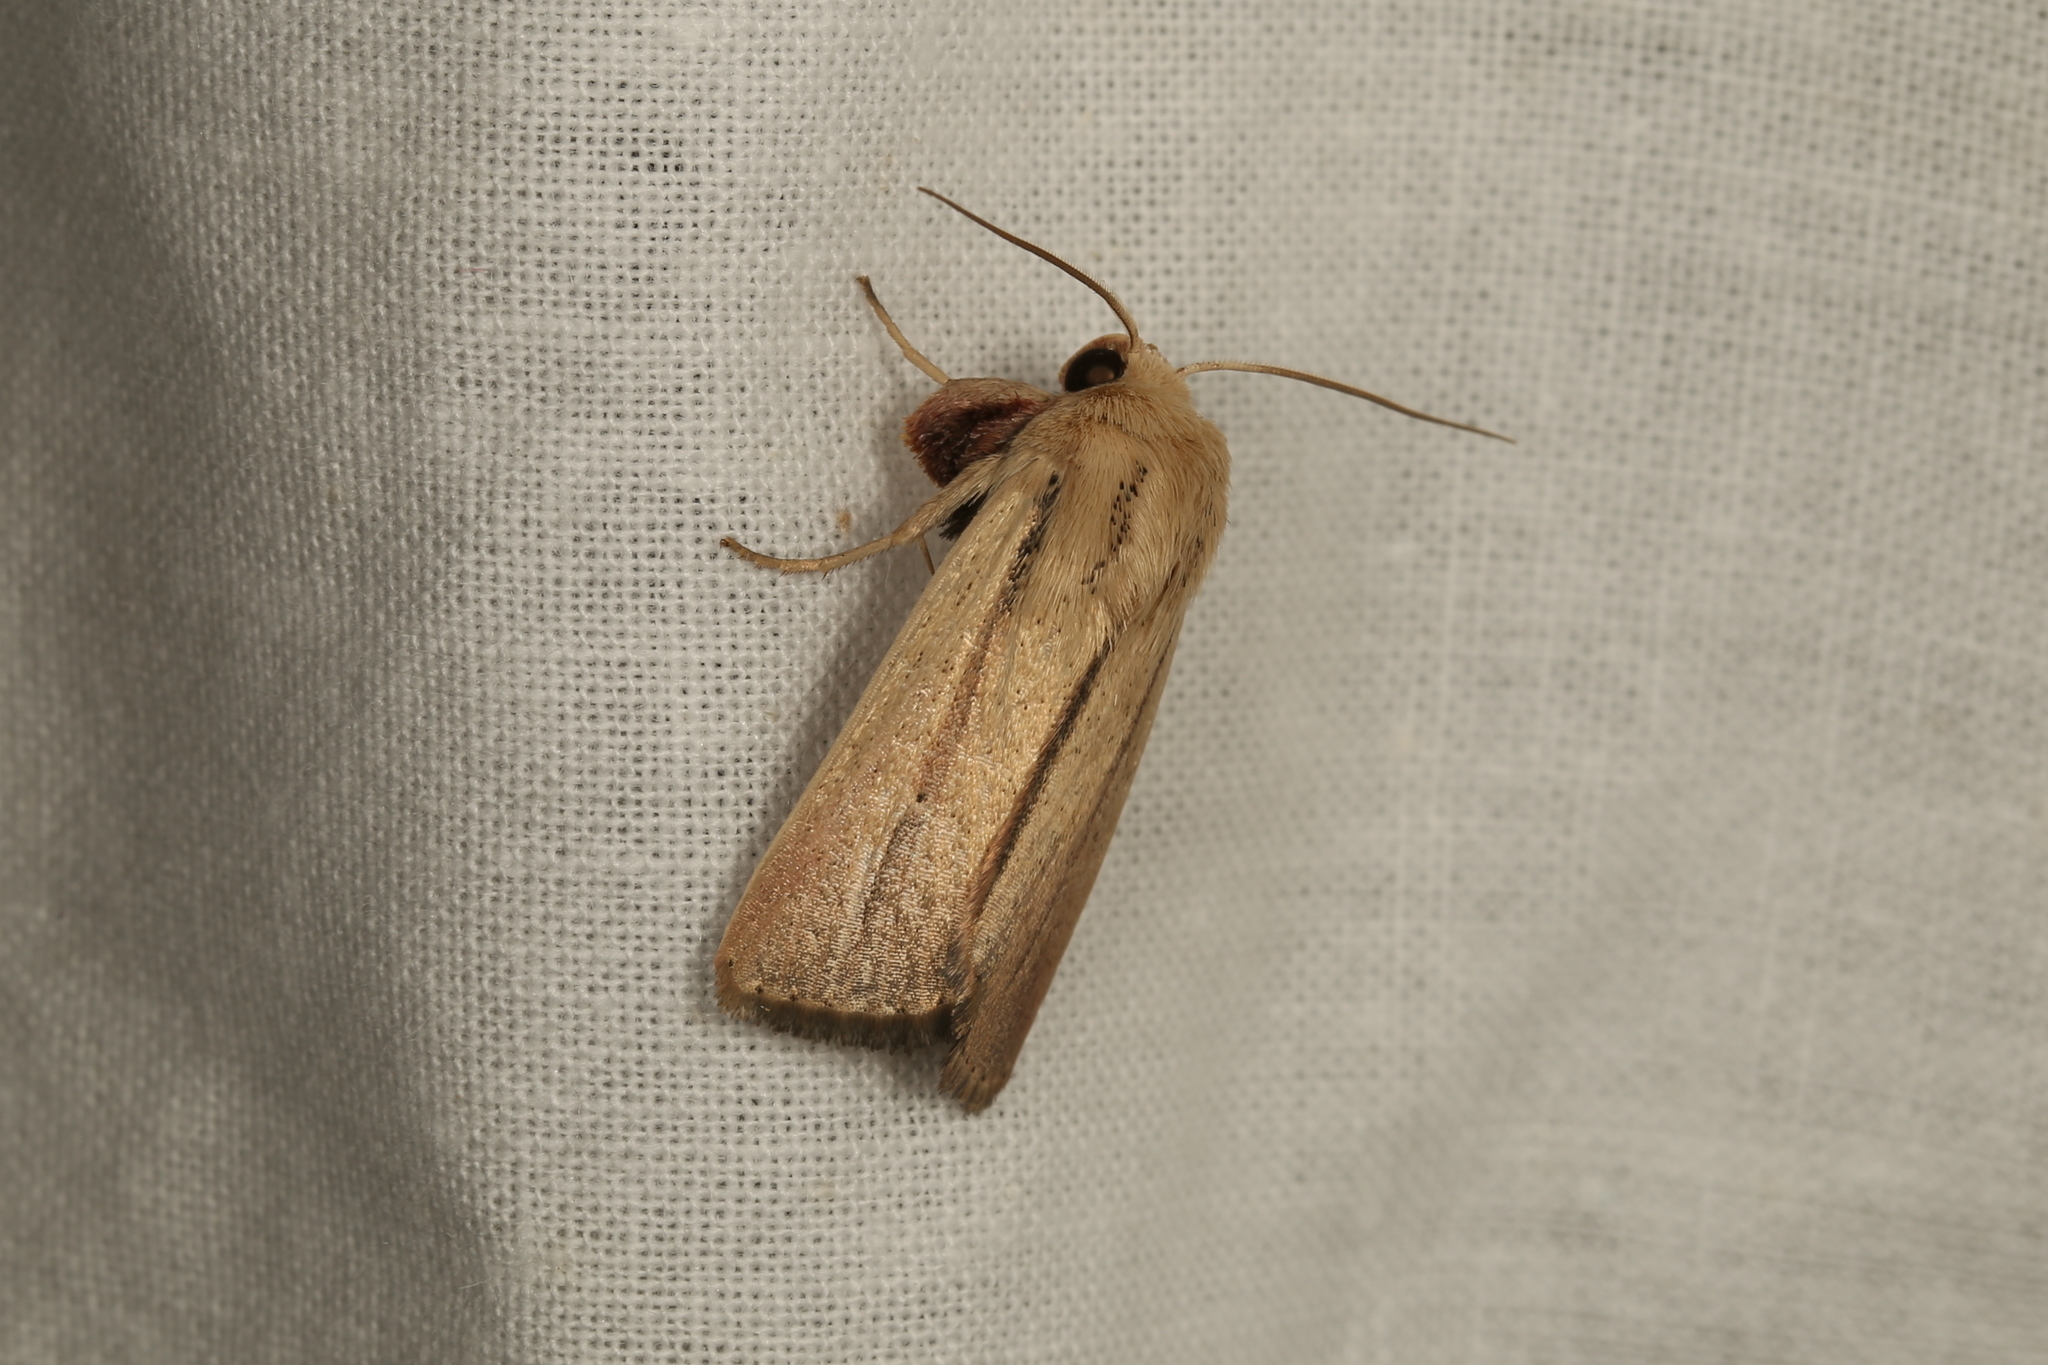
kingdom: Animalia
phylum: Arthropoda
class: Insecta
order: Lepidoptera
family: Noctuidae
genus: Leucania
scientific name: Leucania diatrecta
